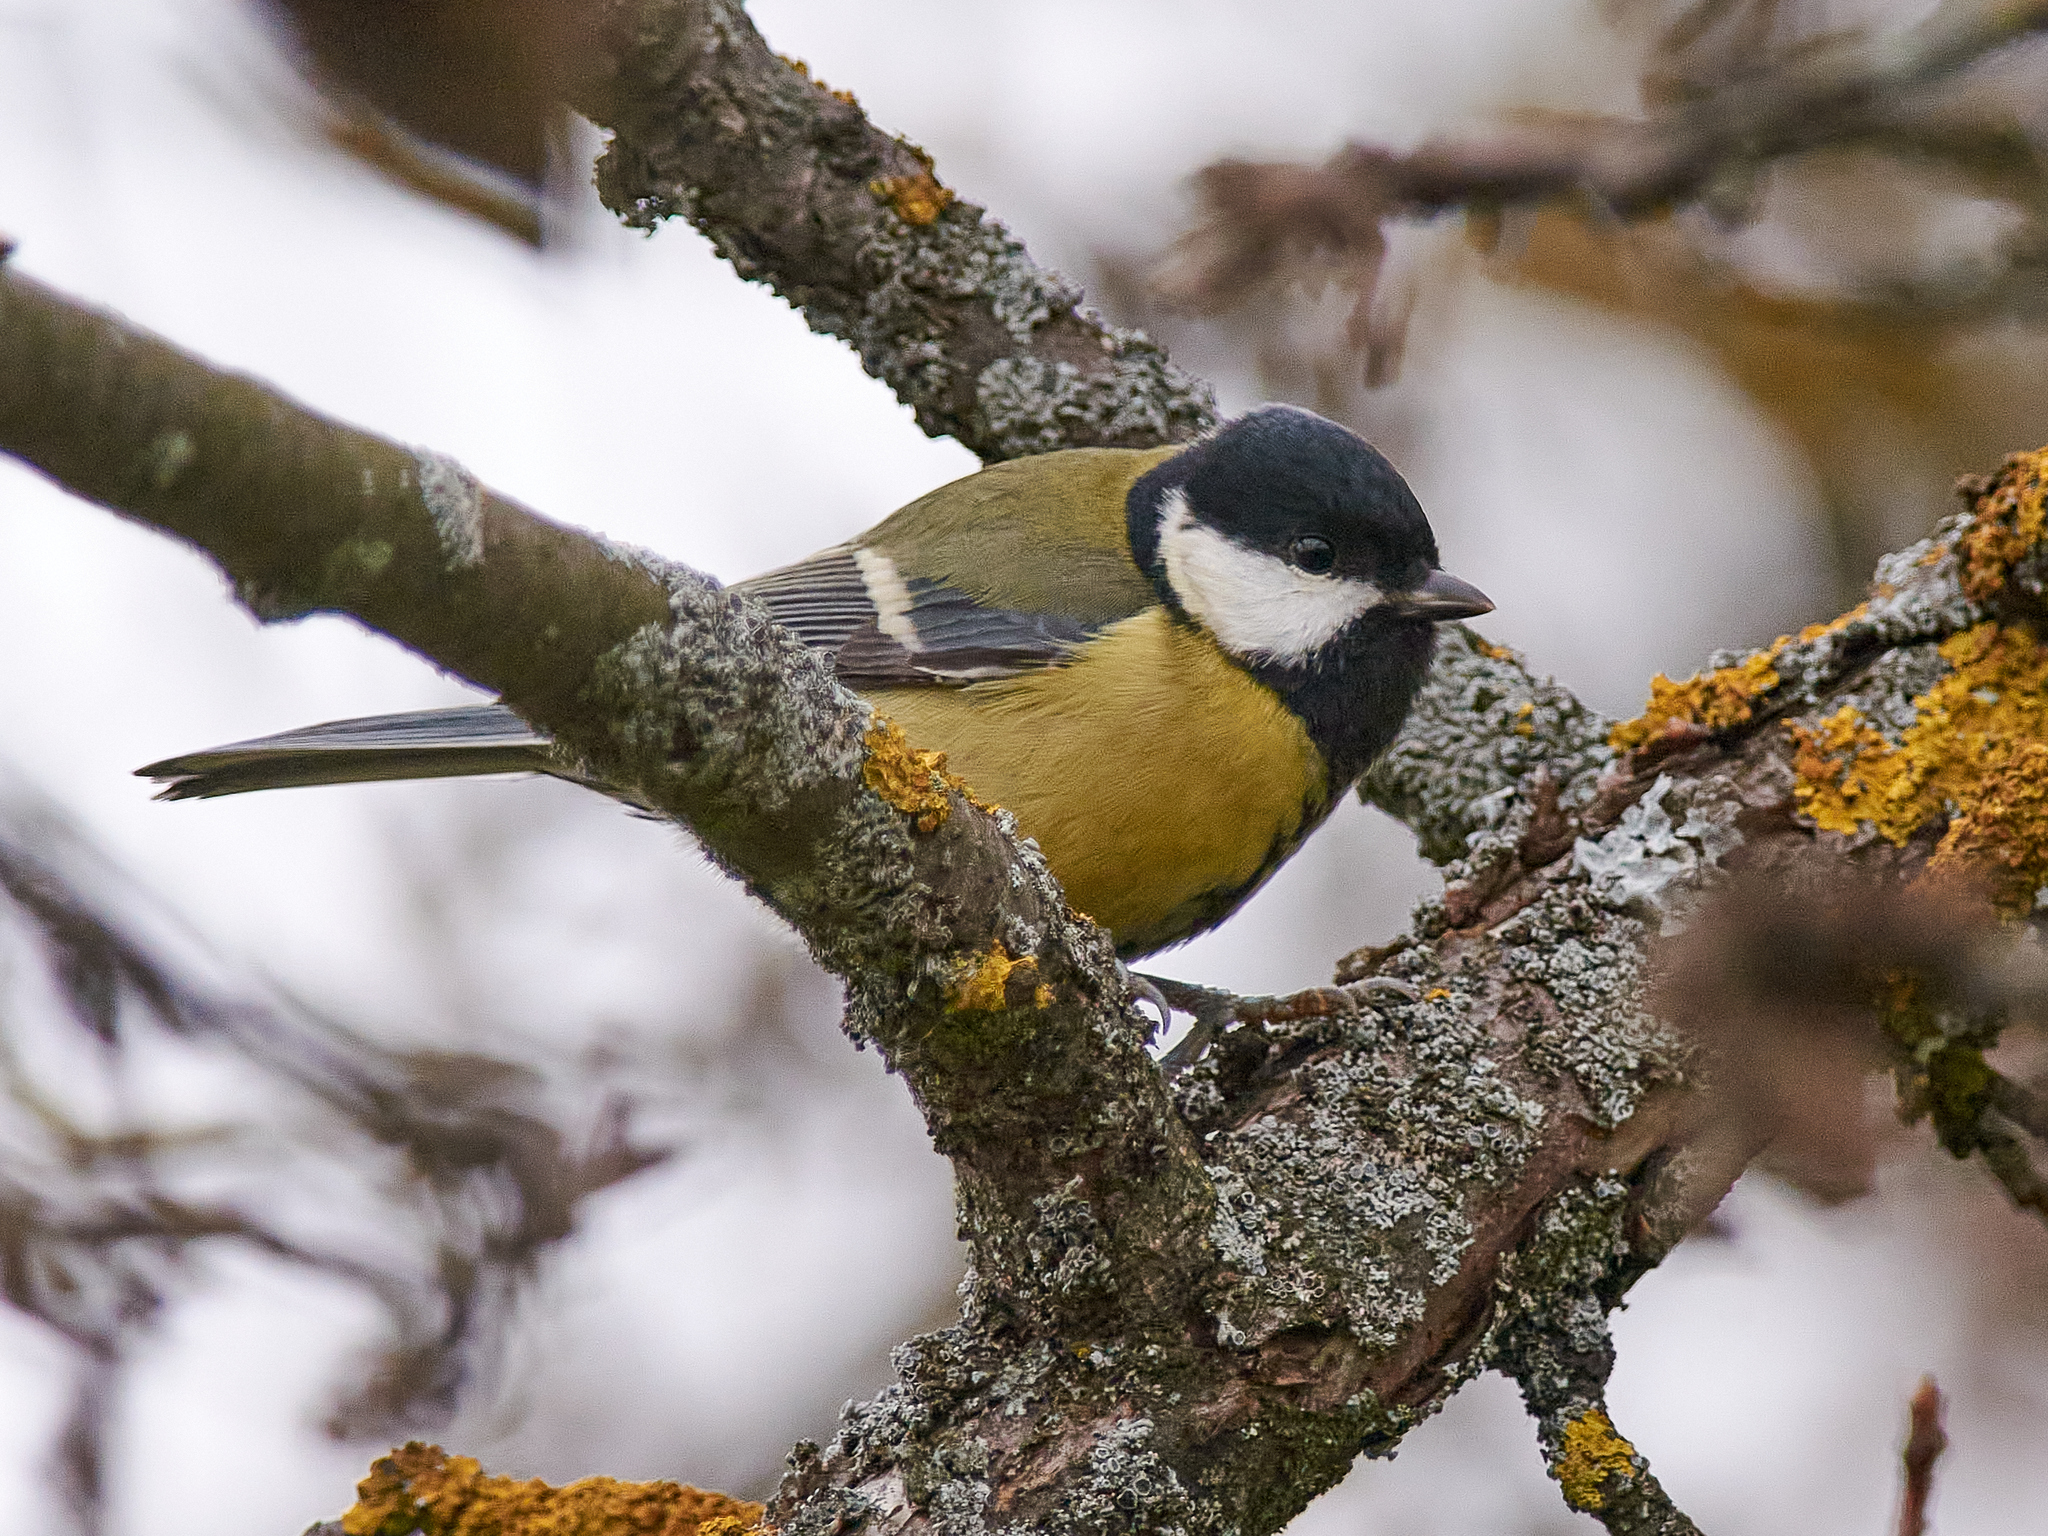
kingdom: Animalia
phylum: Chordata
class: Aves
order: Passeriformes
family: Paridae
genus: Parus
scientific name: Parus major
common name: Great tit
